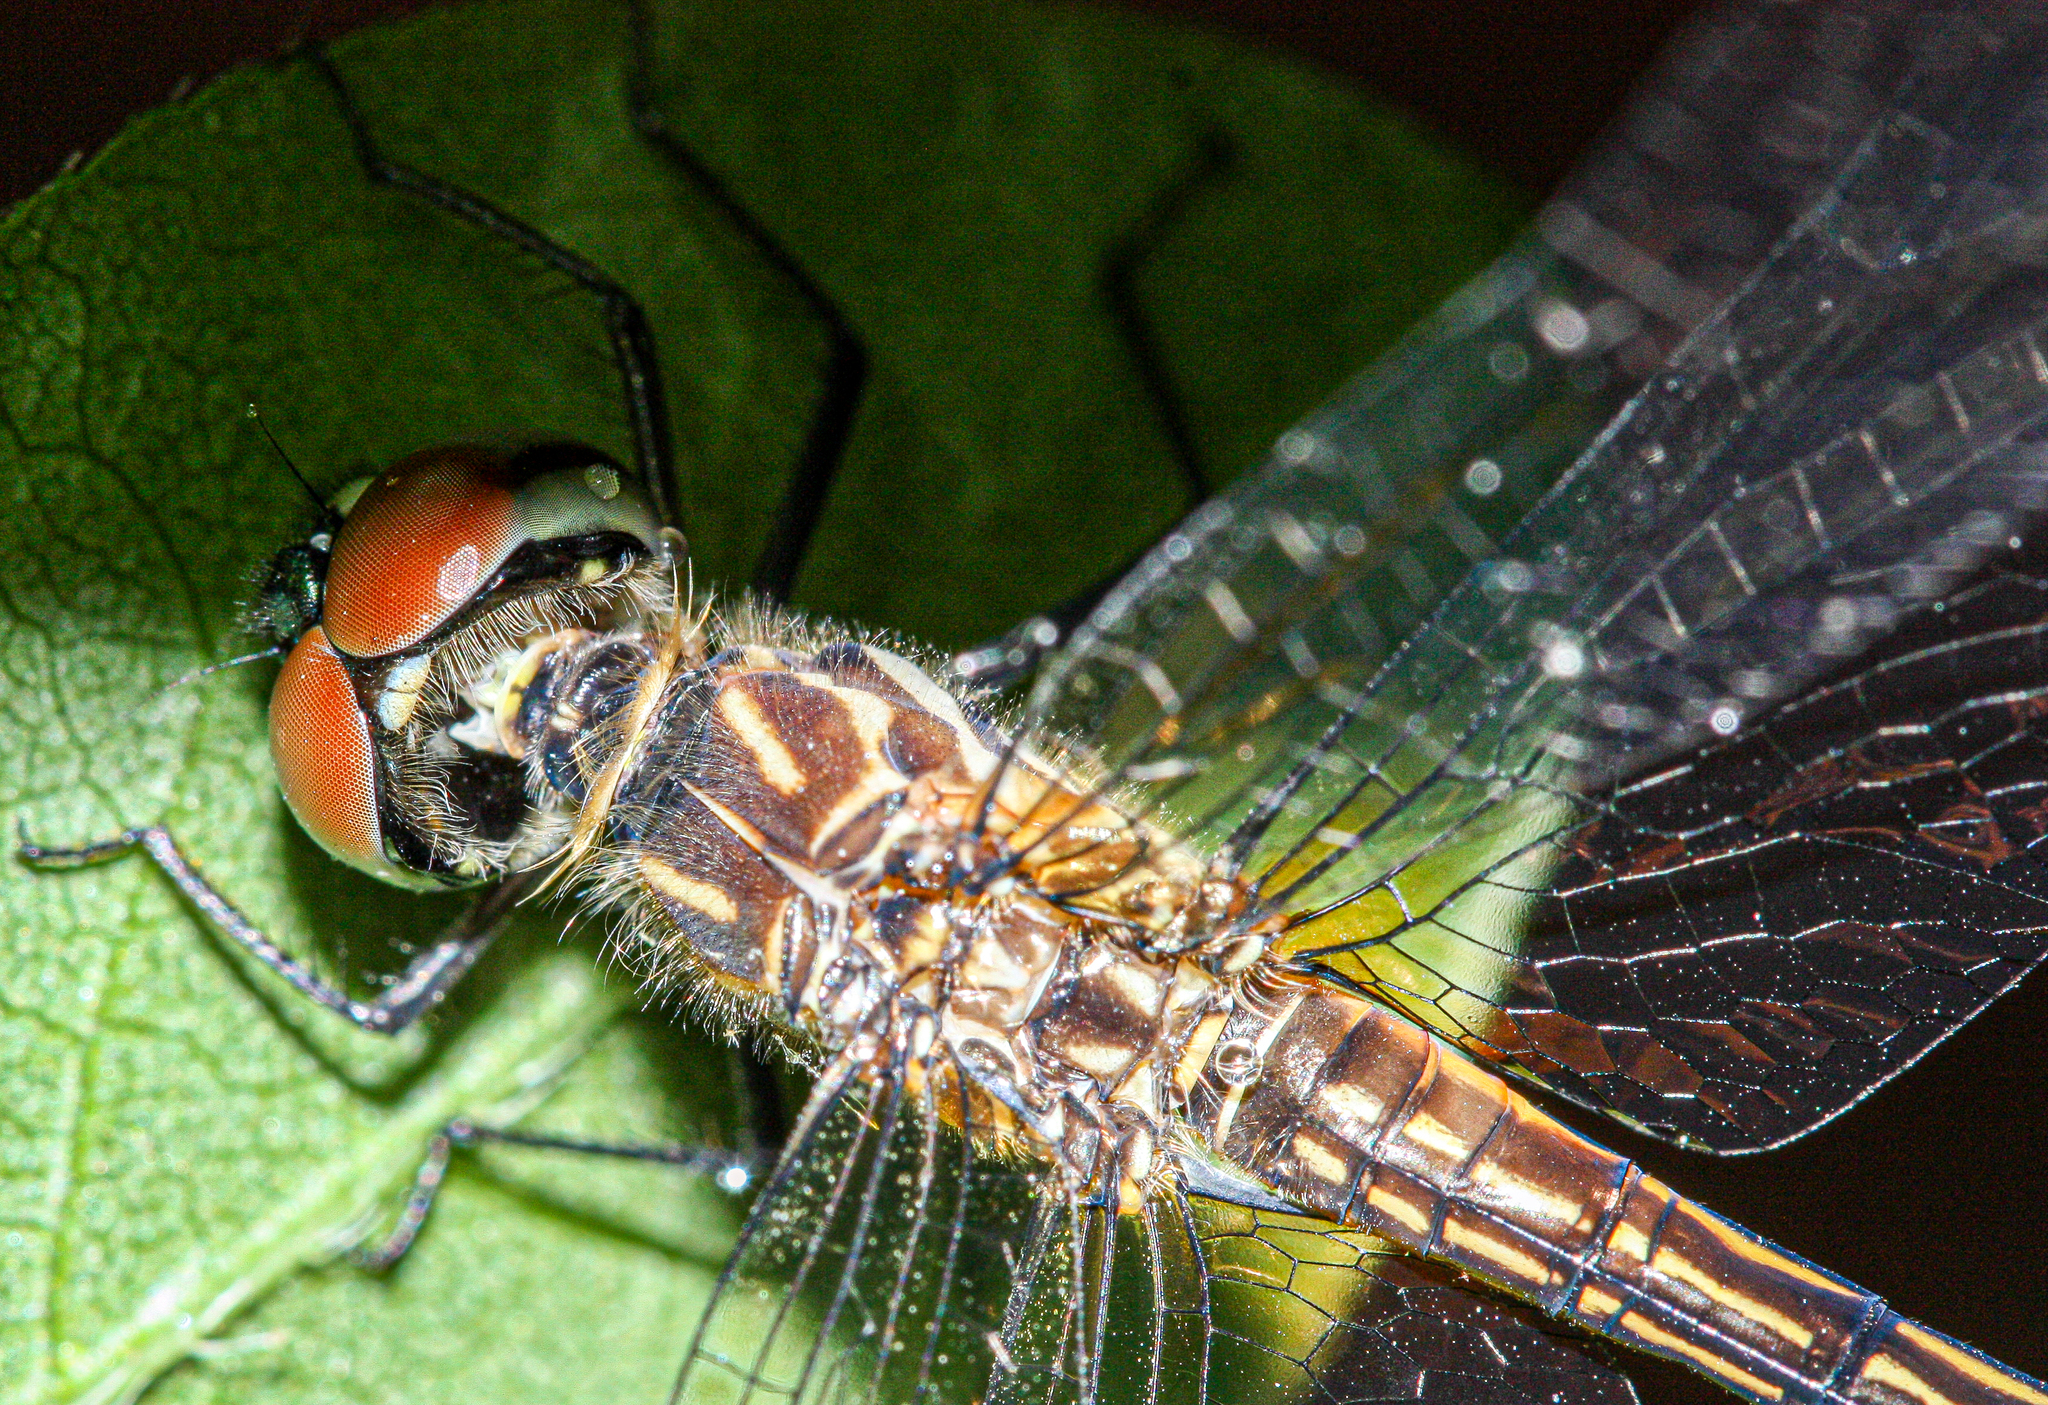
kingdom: Animalia
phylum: Arthropoda
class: Insecta
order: Odonata
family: Libellulidae
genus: Pachydiplax
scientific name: Pachydiplax longipennis
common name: Blue dasher
